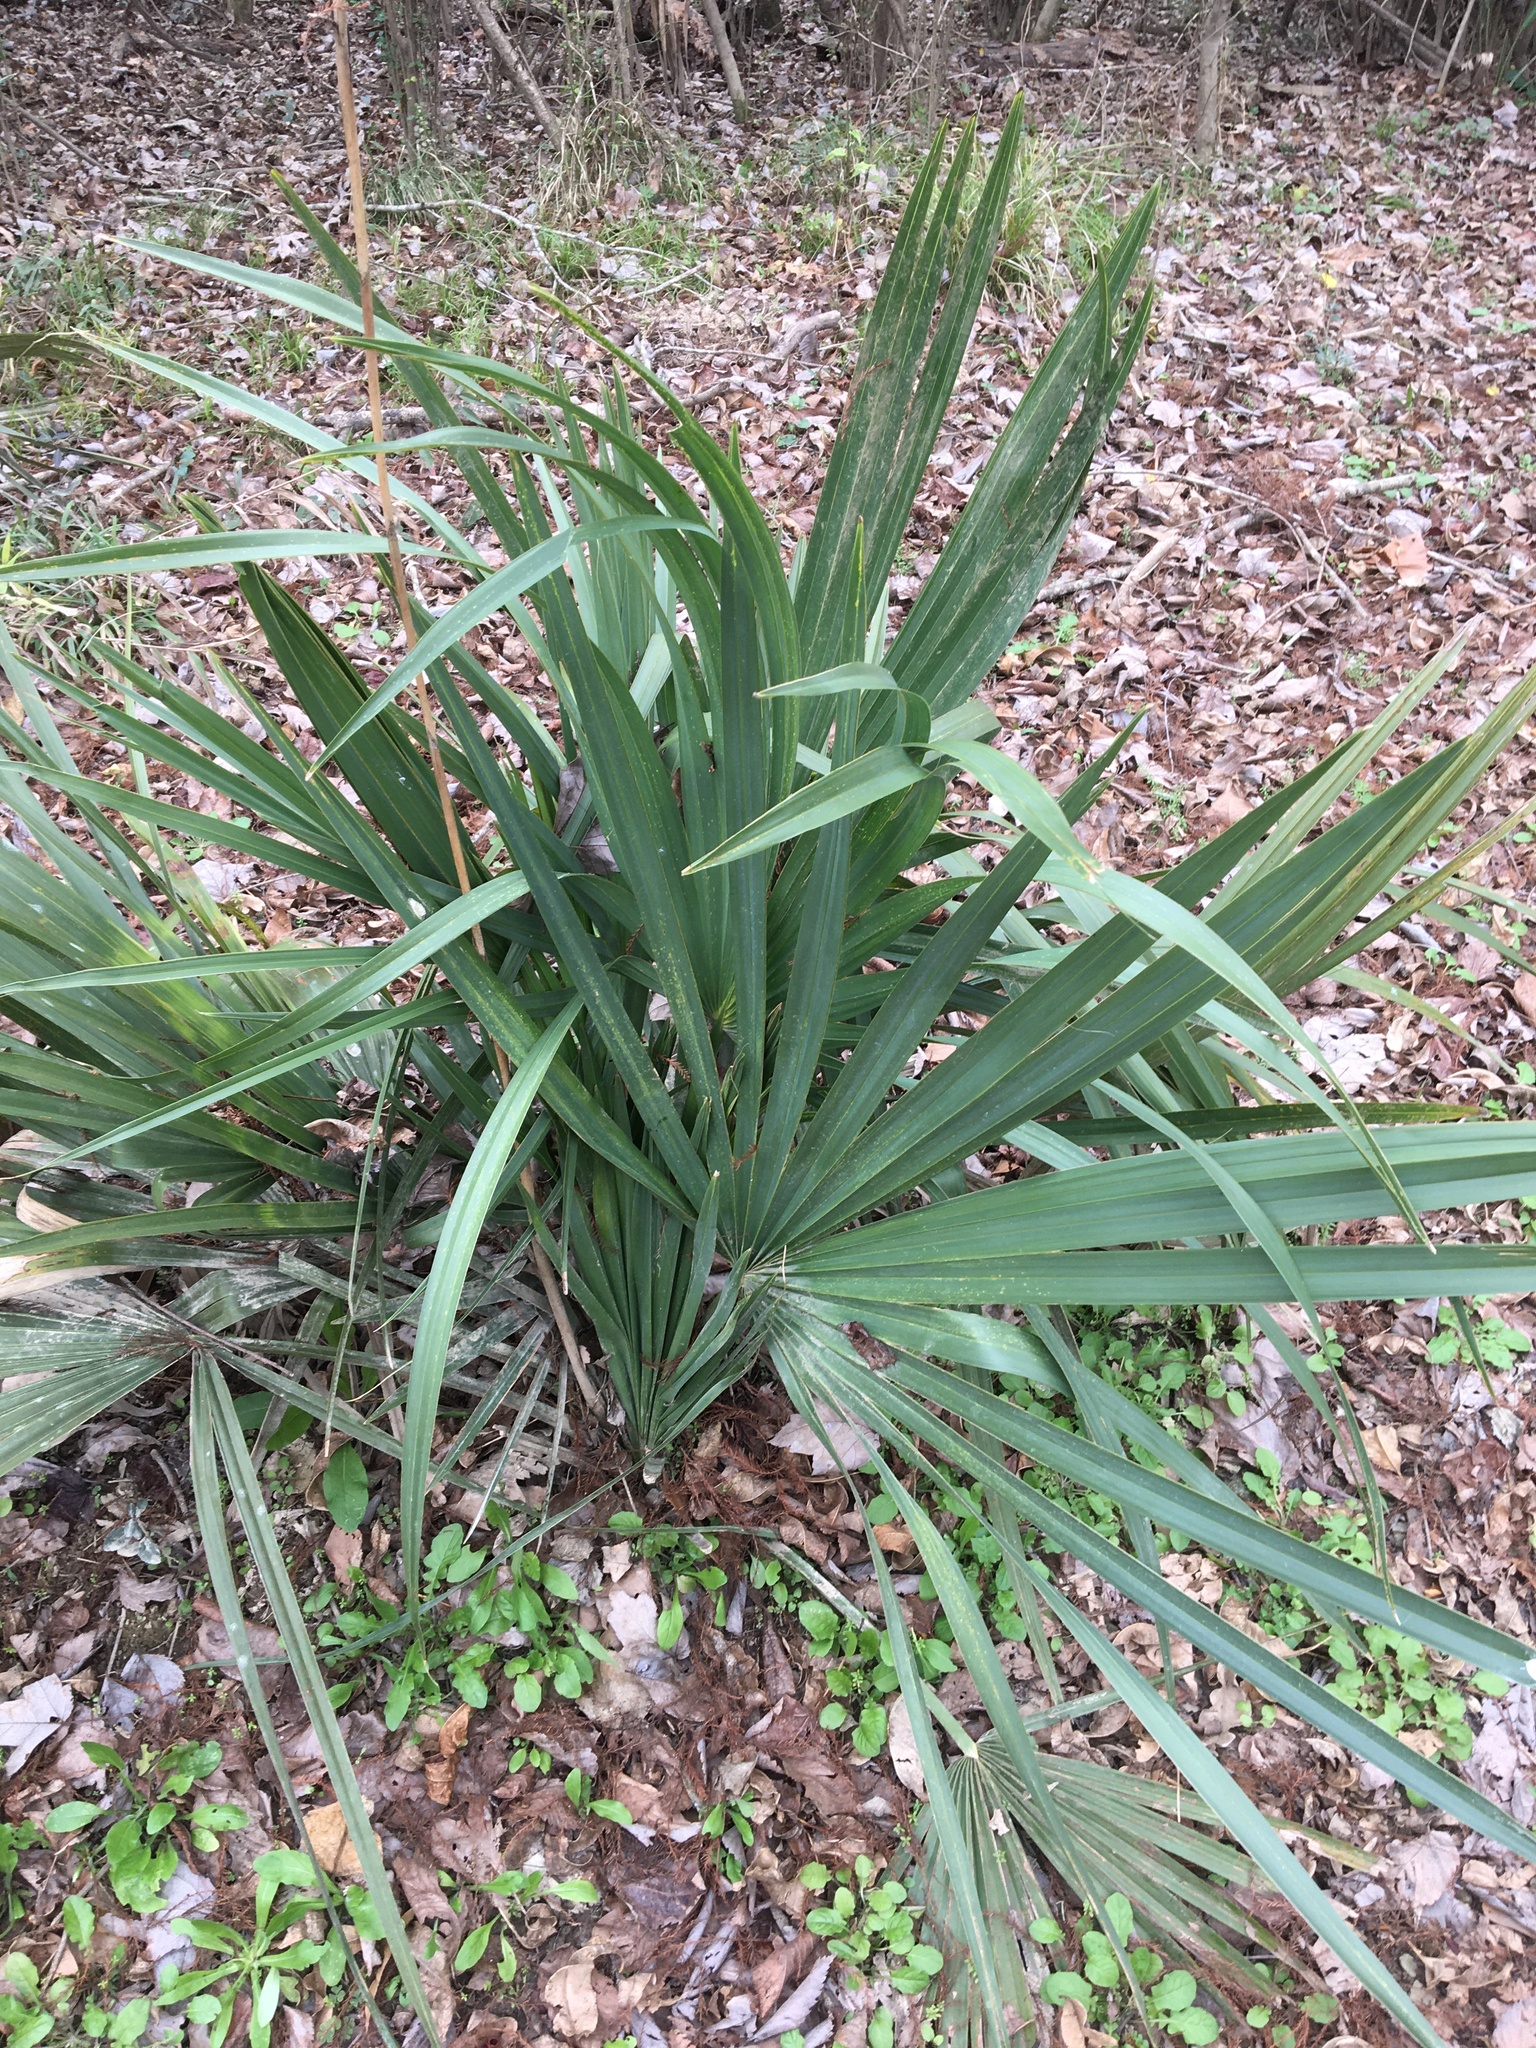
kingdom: Plantae
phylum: Tracheophyta
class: Liliopsida
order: Arecales
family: Arecaceae
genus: Sabal
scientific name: Sabal minor
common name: Dwarf palmetto
